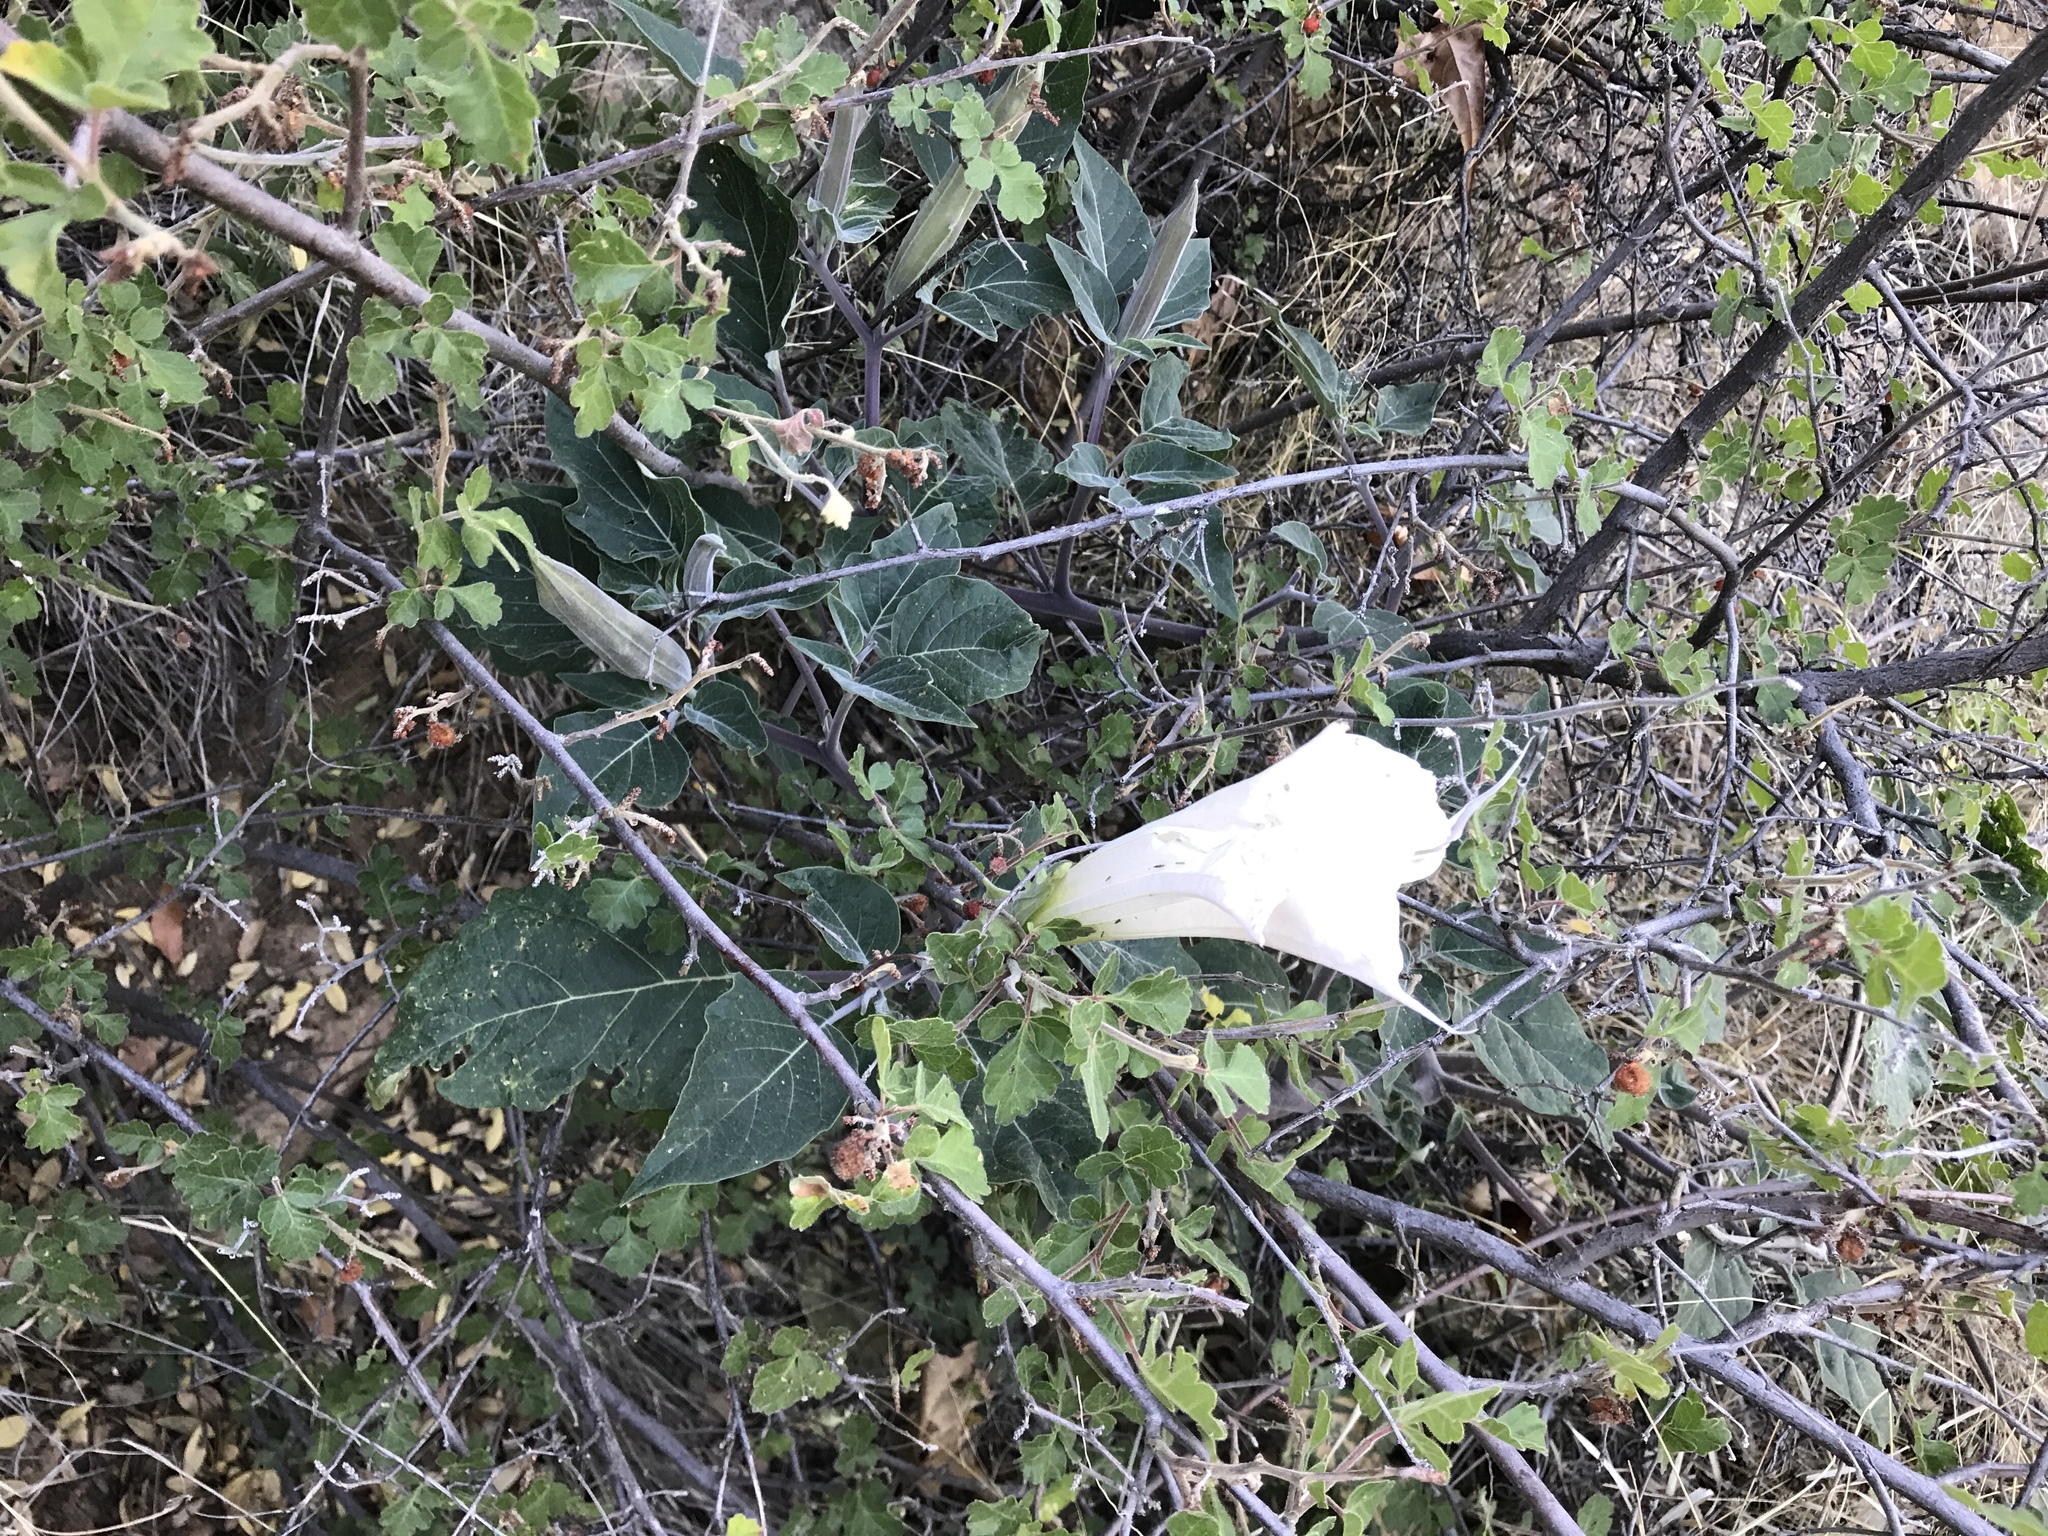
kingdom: Plantae
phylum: Tracheophyta
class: Magnoliopsida
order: Solanales
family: Solanaceae
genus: Datura
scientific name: Datura wrightii
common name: Sacred thorn-apple
